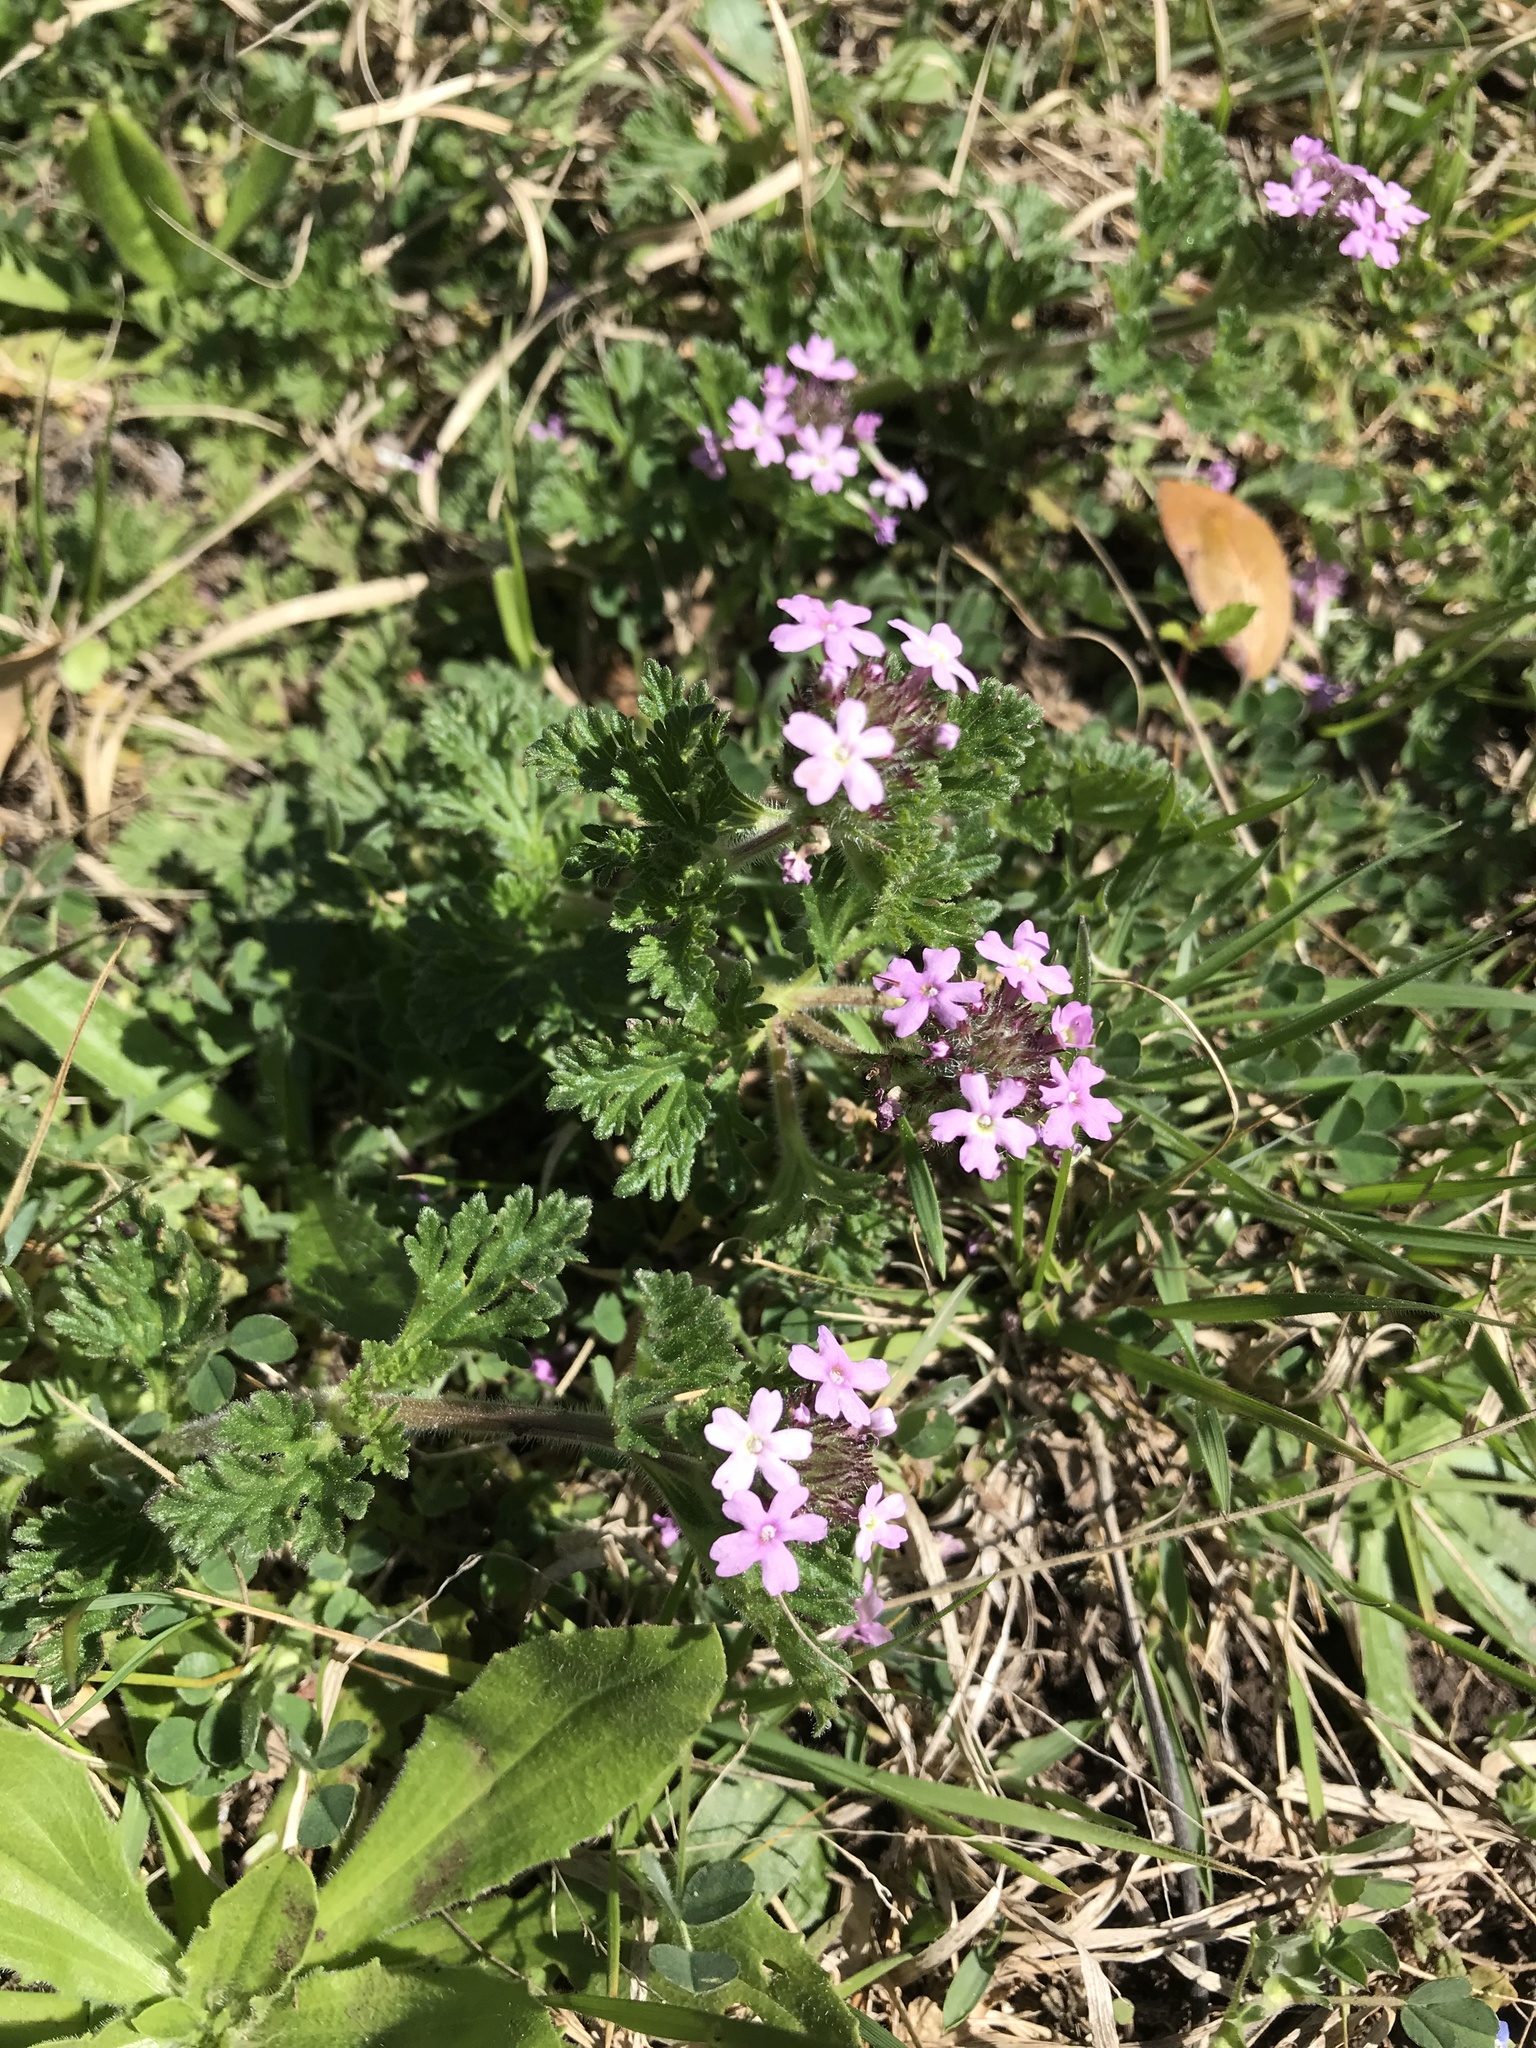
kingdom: Plantae
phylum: Tracheophyta
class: Magnoliopsida
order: Lamiales
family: Verbenaceae
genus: Verbena
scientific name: Verbena pumila
